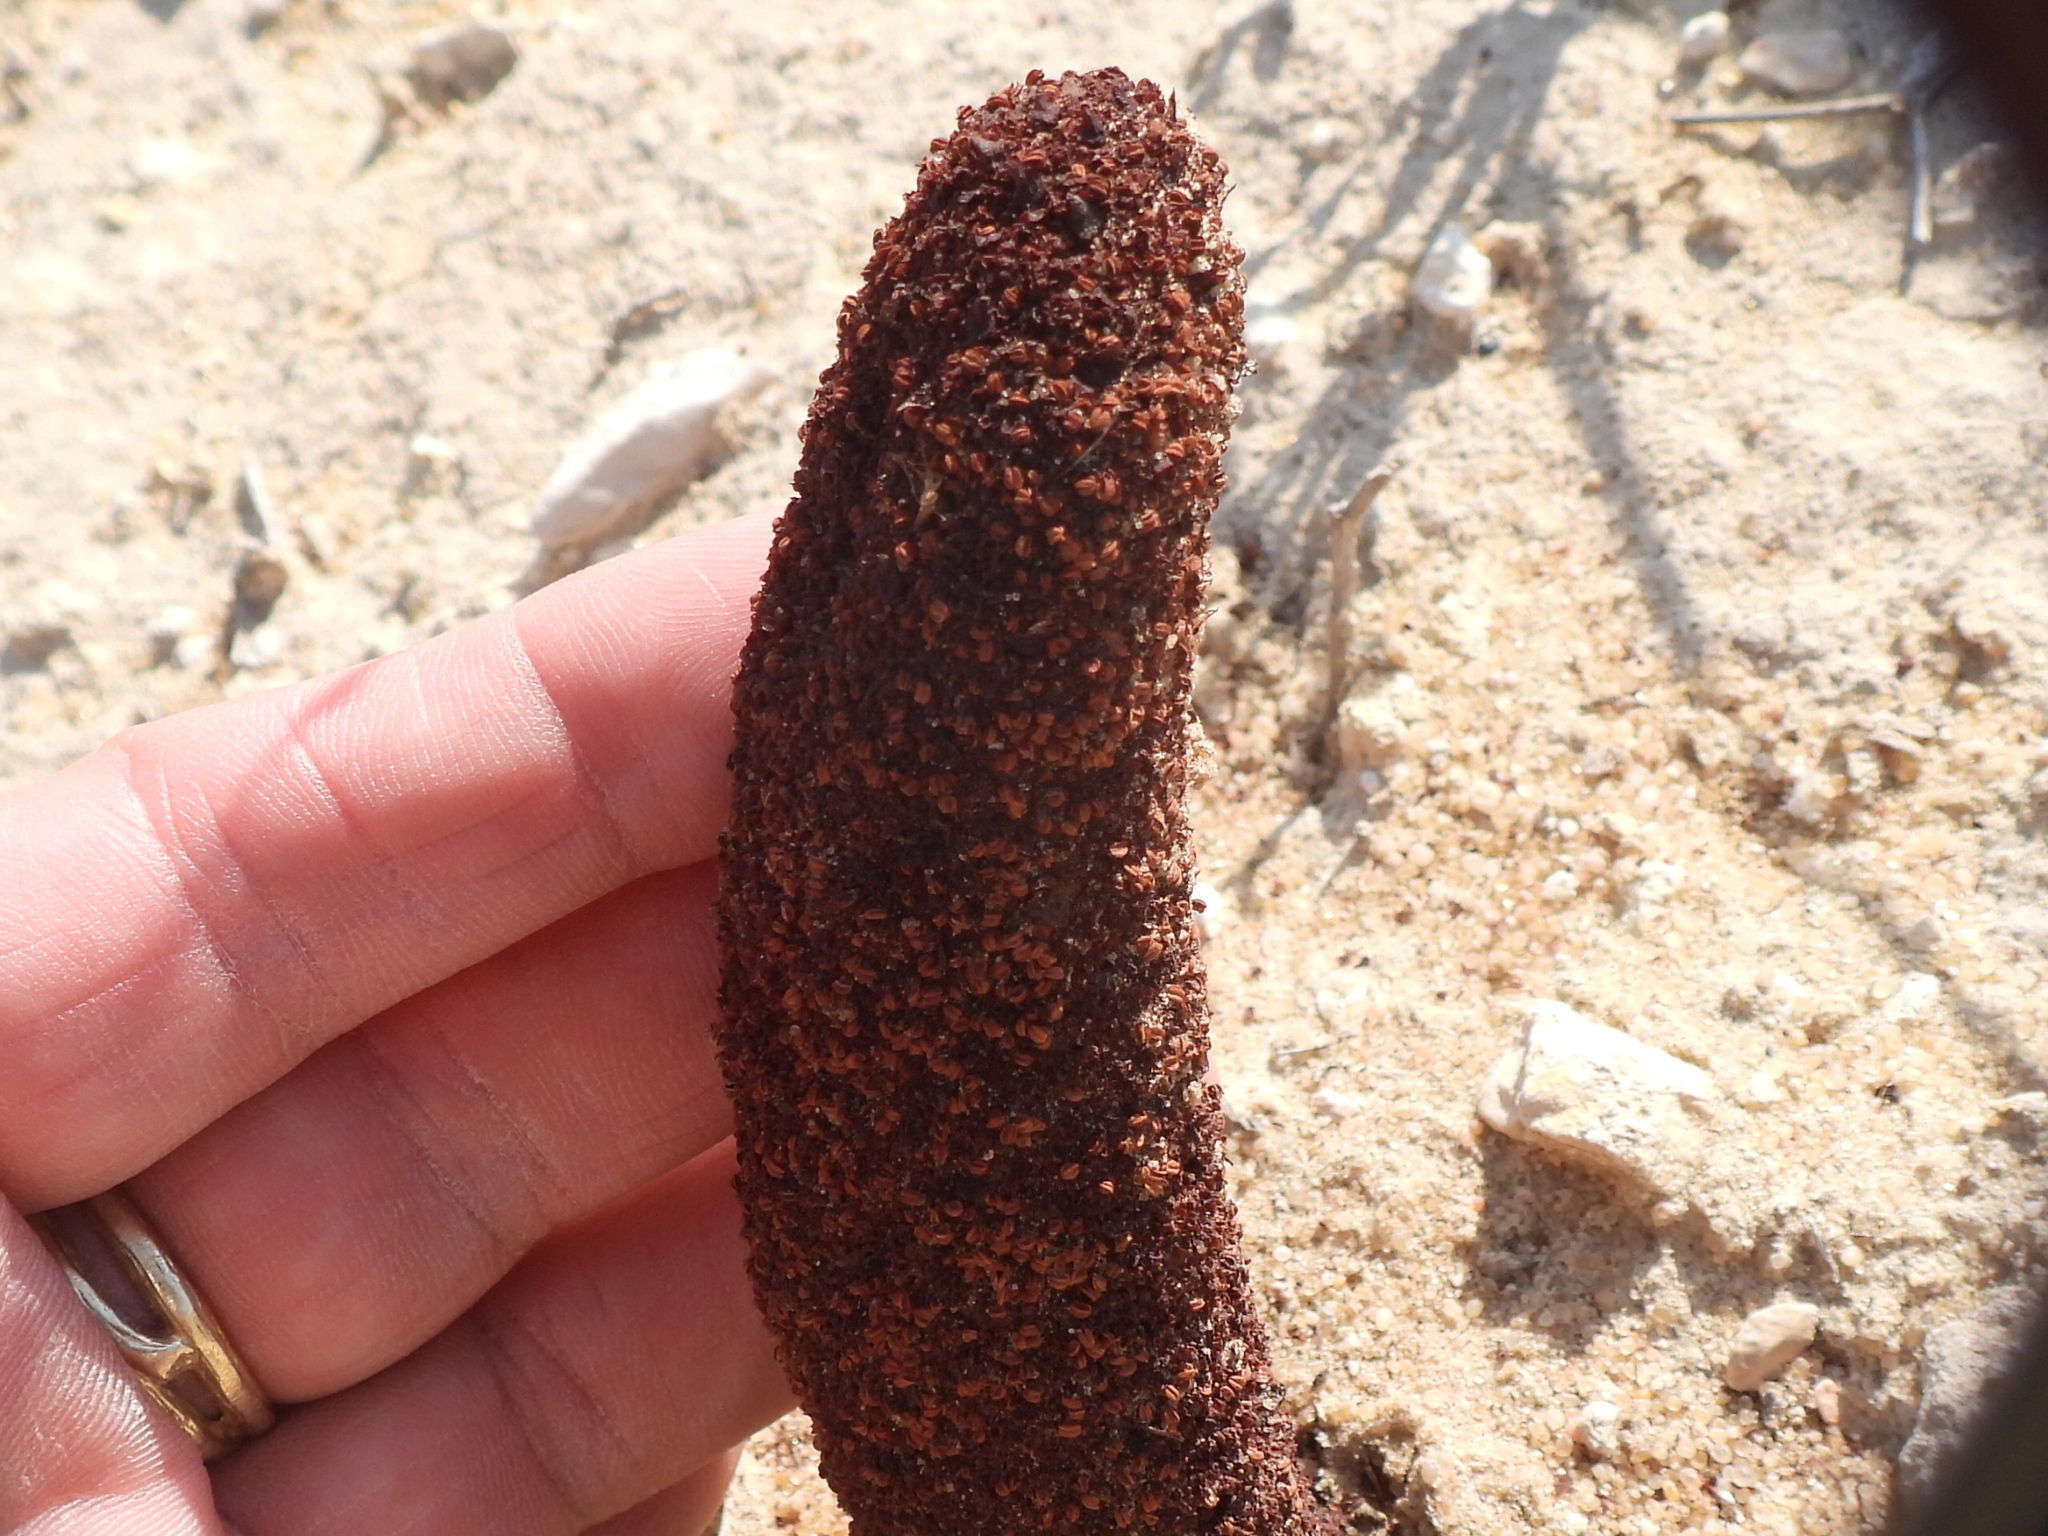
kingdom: Plantae
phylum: Tracheophyta
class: Magnoliopsida
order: Saxifragales
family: Cynomoriaceae
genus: Cynomorium
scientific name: Cynomorium coccineum
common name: Maltese-mushroom
